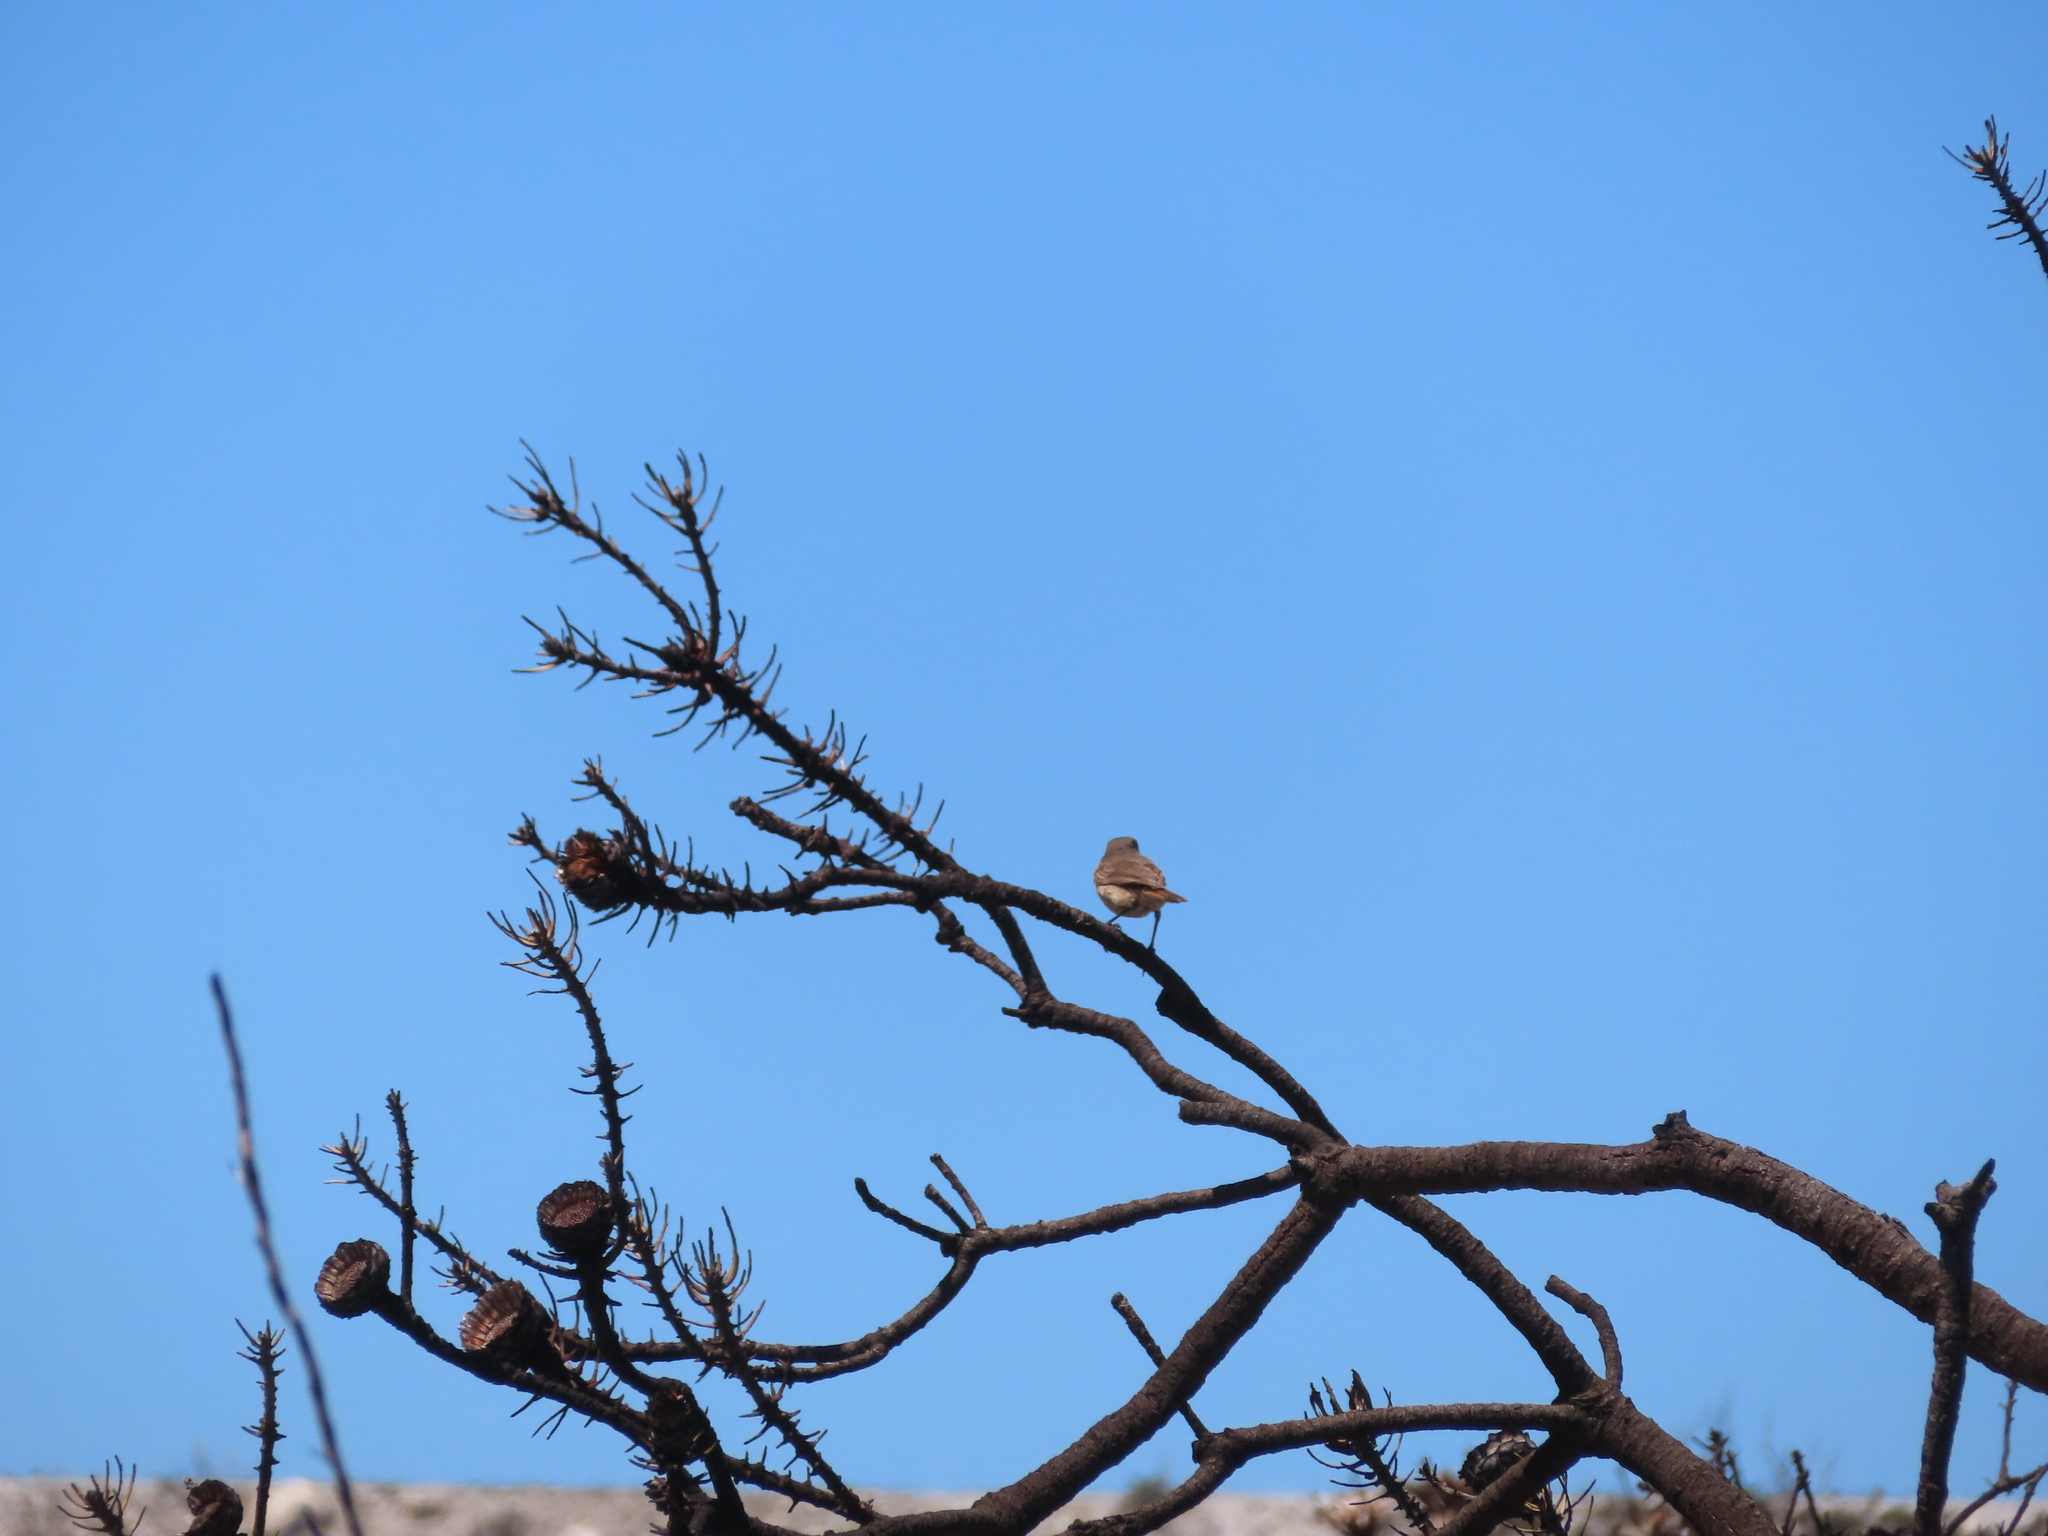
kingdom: Animalia
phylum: Chordata
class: Aves
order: Passeriformes
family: Muscicapidae
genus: Oenanthe
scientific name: Oenanthe familiaris
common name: Familiar chat
